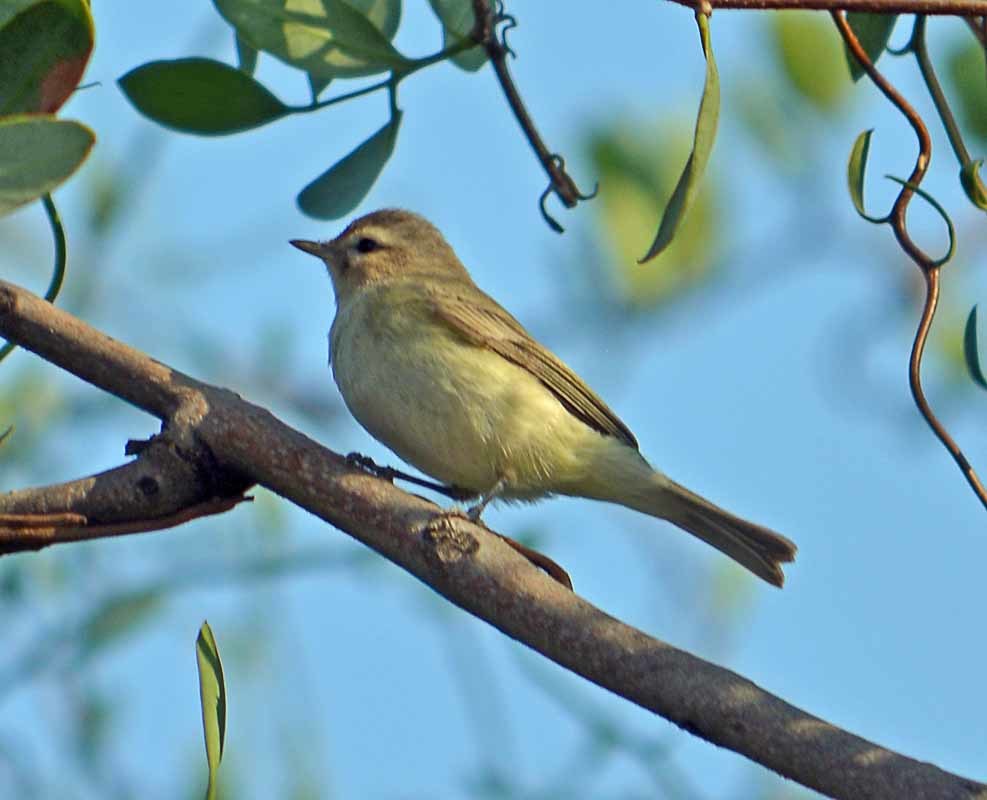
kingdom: Animalia
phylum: Chordata
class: Aves
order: Passeriformes
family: Vireonidae
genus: Vireo
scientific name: Vireo gilvus
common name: Warbling vireo
